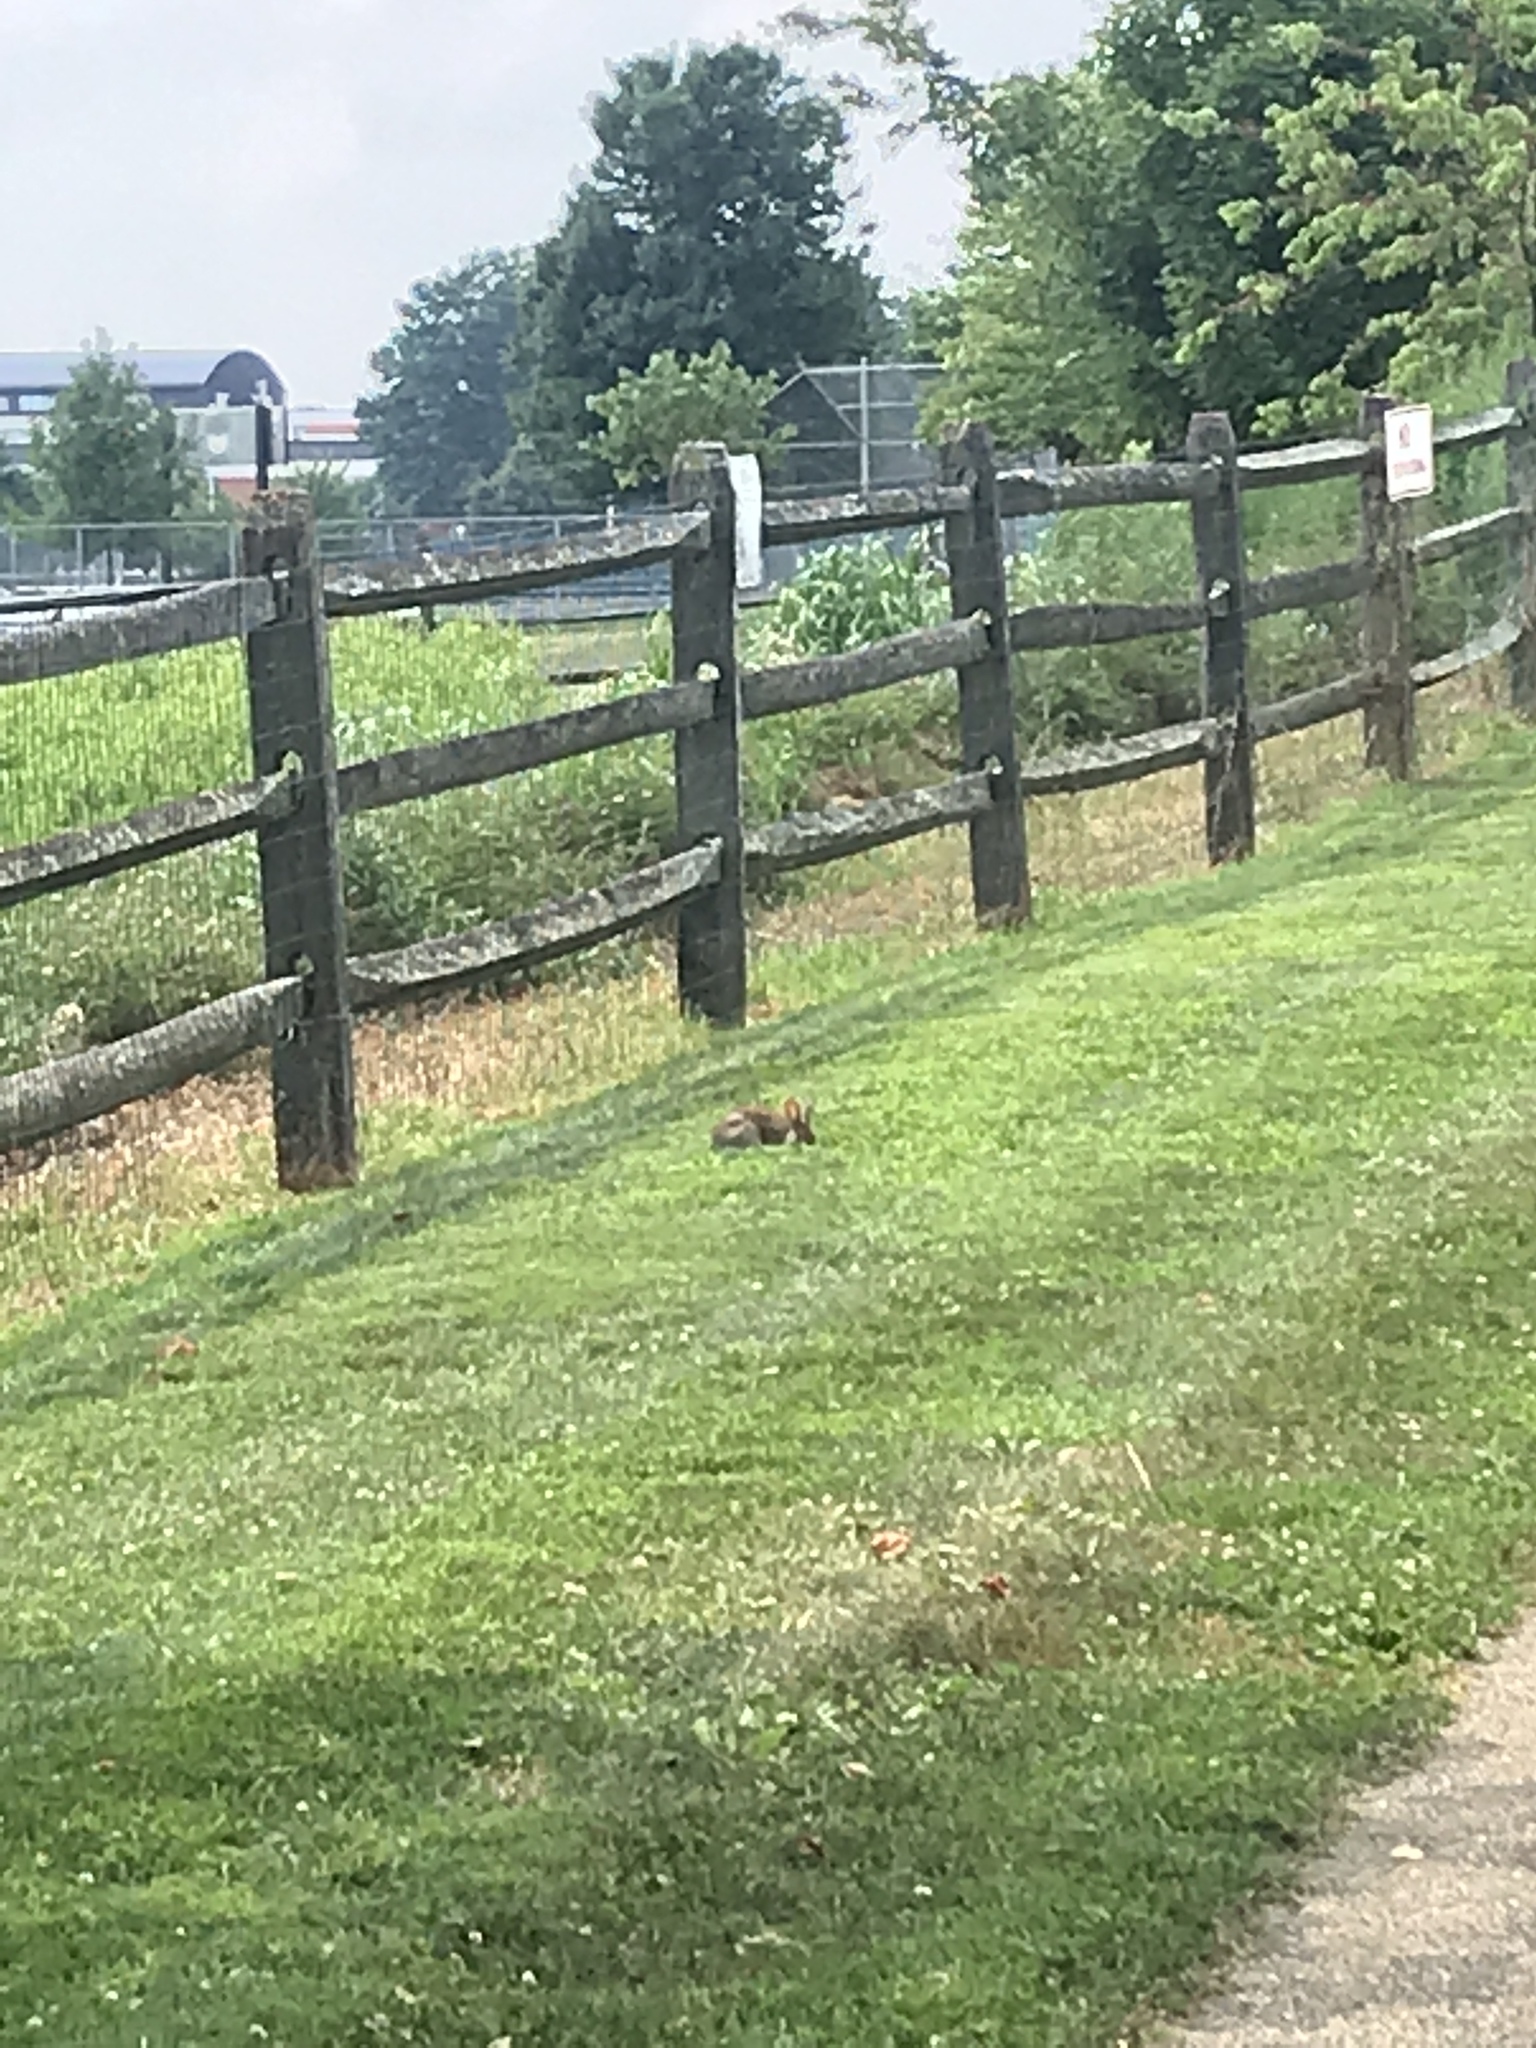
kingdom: Animalia
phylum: Chordata
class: Mammalia
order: Lagomorpha
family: Leporidae
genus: Sylvilagus
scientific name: Sylvilagus floridanus
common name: Eastern cottontail
